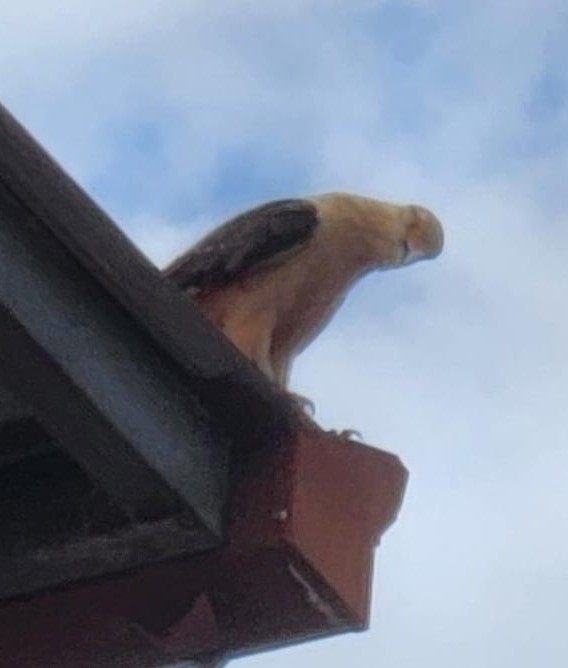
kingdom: Animalia
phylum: Chordata
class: Aves
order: Falconiformes
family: Falconidae
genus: Daptrius
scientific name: Daptrius
